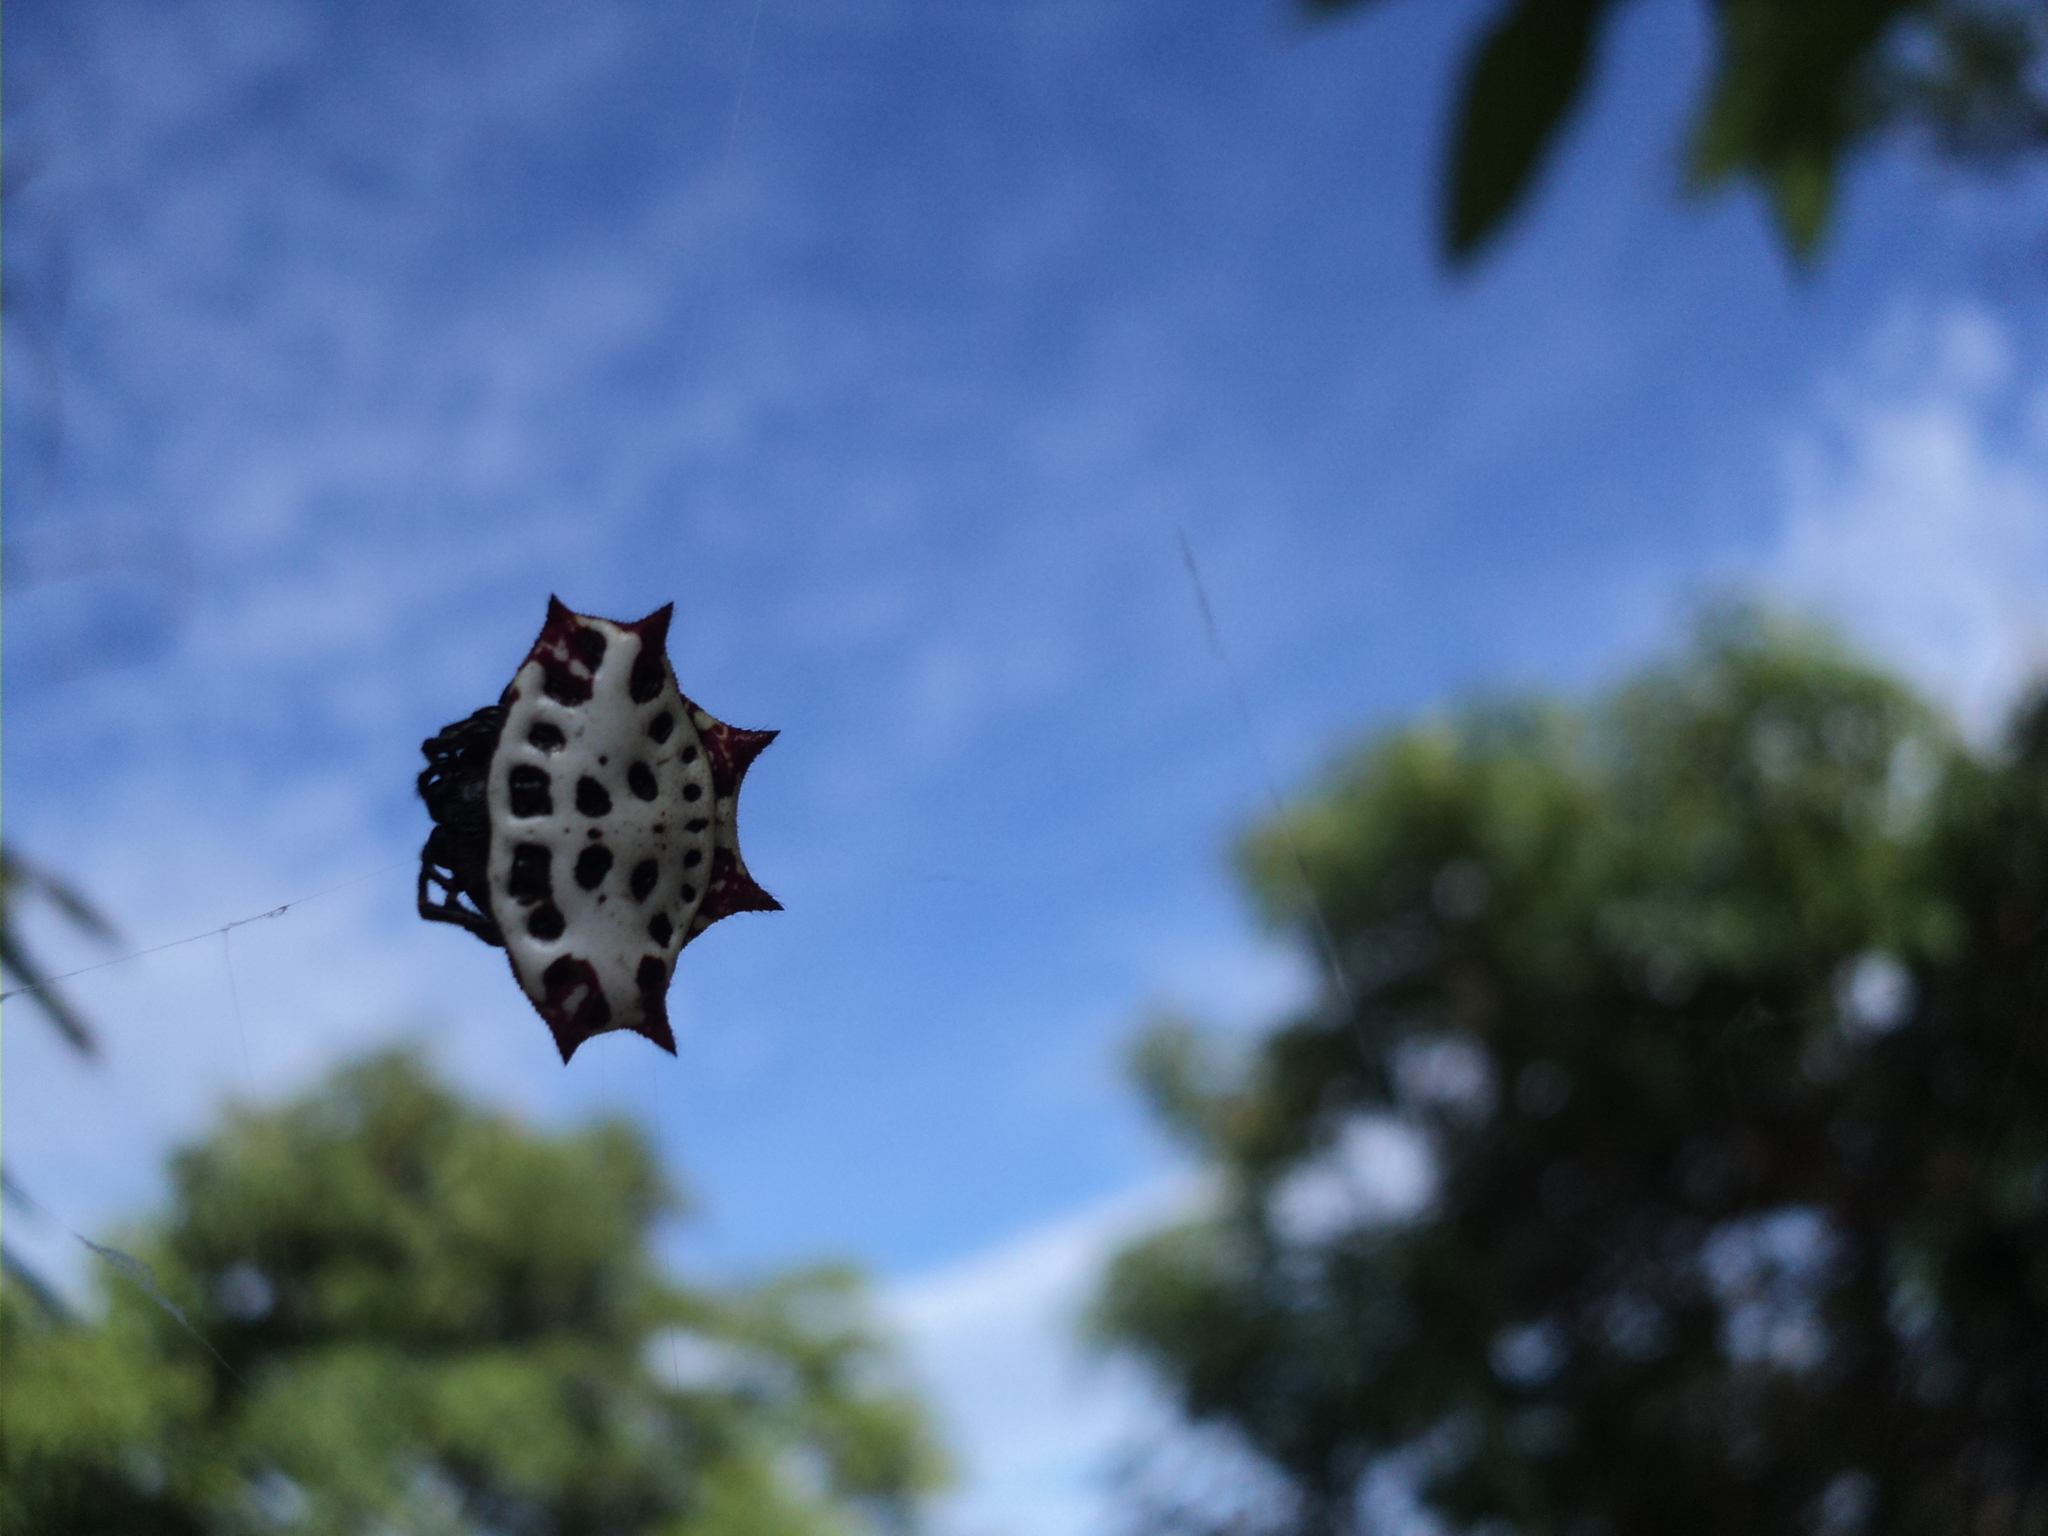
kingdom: Animalia
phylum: Arthropoda
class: Arachnida
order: Araneae
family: Araneidae
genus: Gasteracantha
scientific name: Gasteracantha cancriformis
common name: Orb weavers
